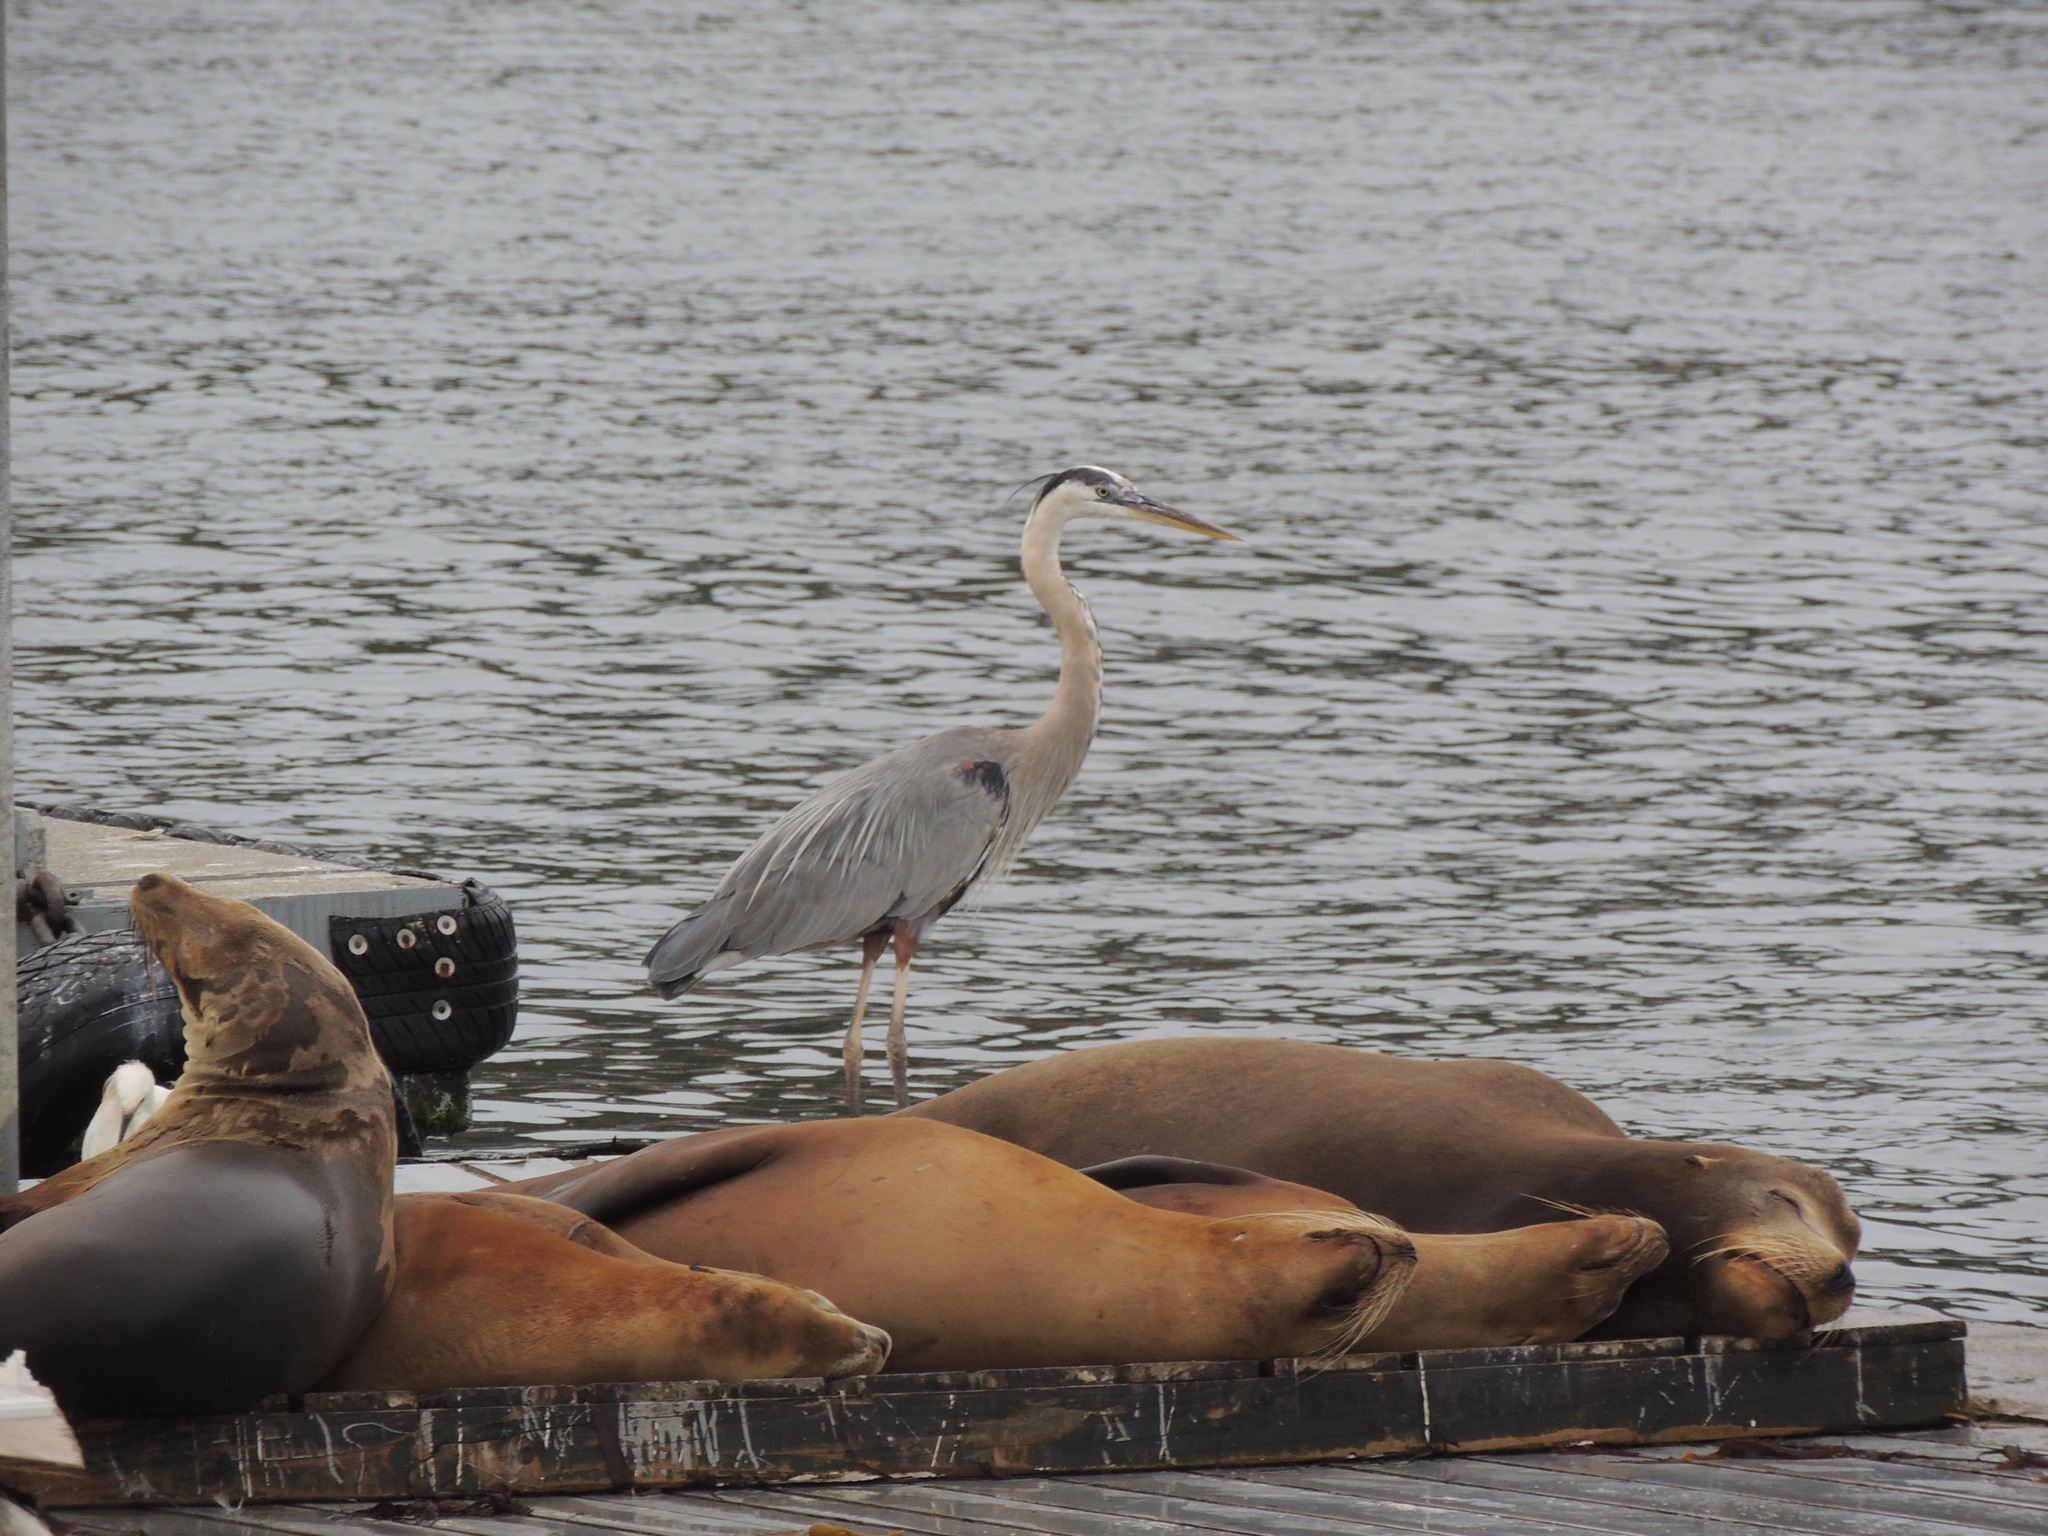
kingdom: Animalia
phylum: Chordata
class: Aves
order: Pelecaniformes
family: Ardeidae
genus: Ardea
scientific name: Ardea herodias
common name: Great blue heron
